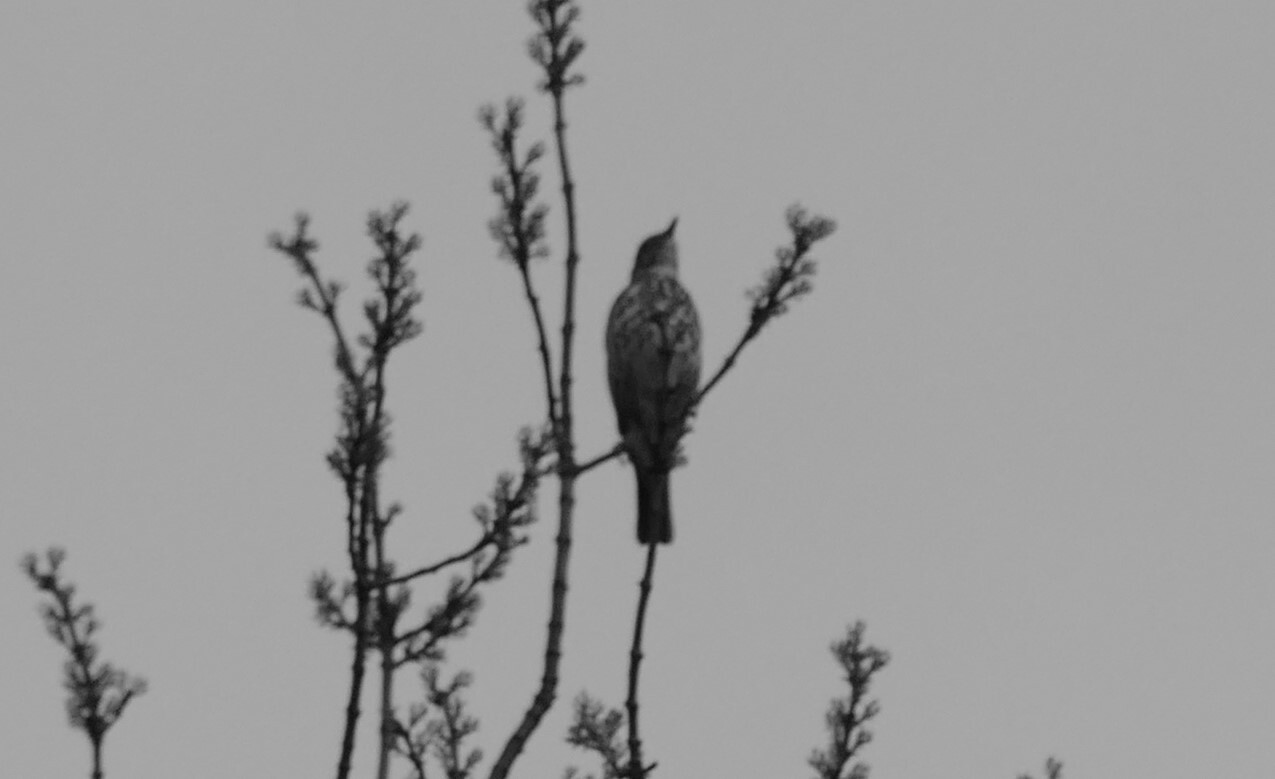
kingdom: Animalia
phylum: Chordata
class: Aves
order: Passeriformes
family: Turdidae
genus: Turdus
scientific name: Turdus philomelos
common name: Song thrush
